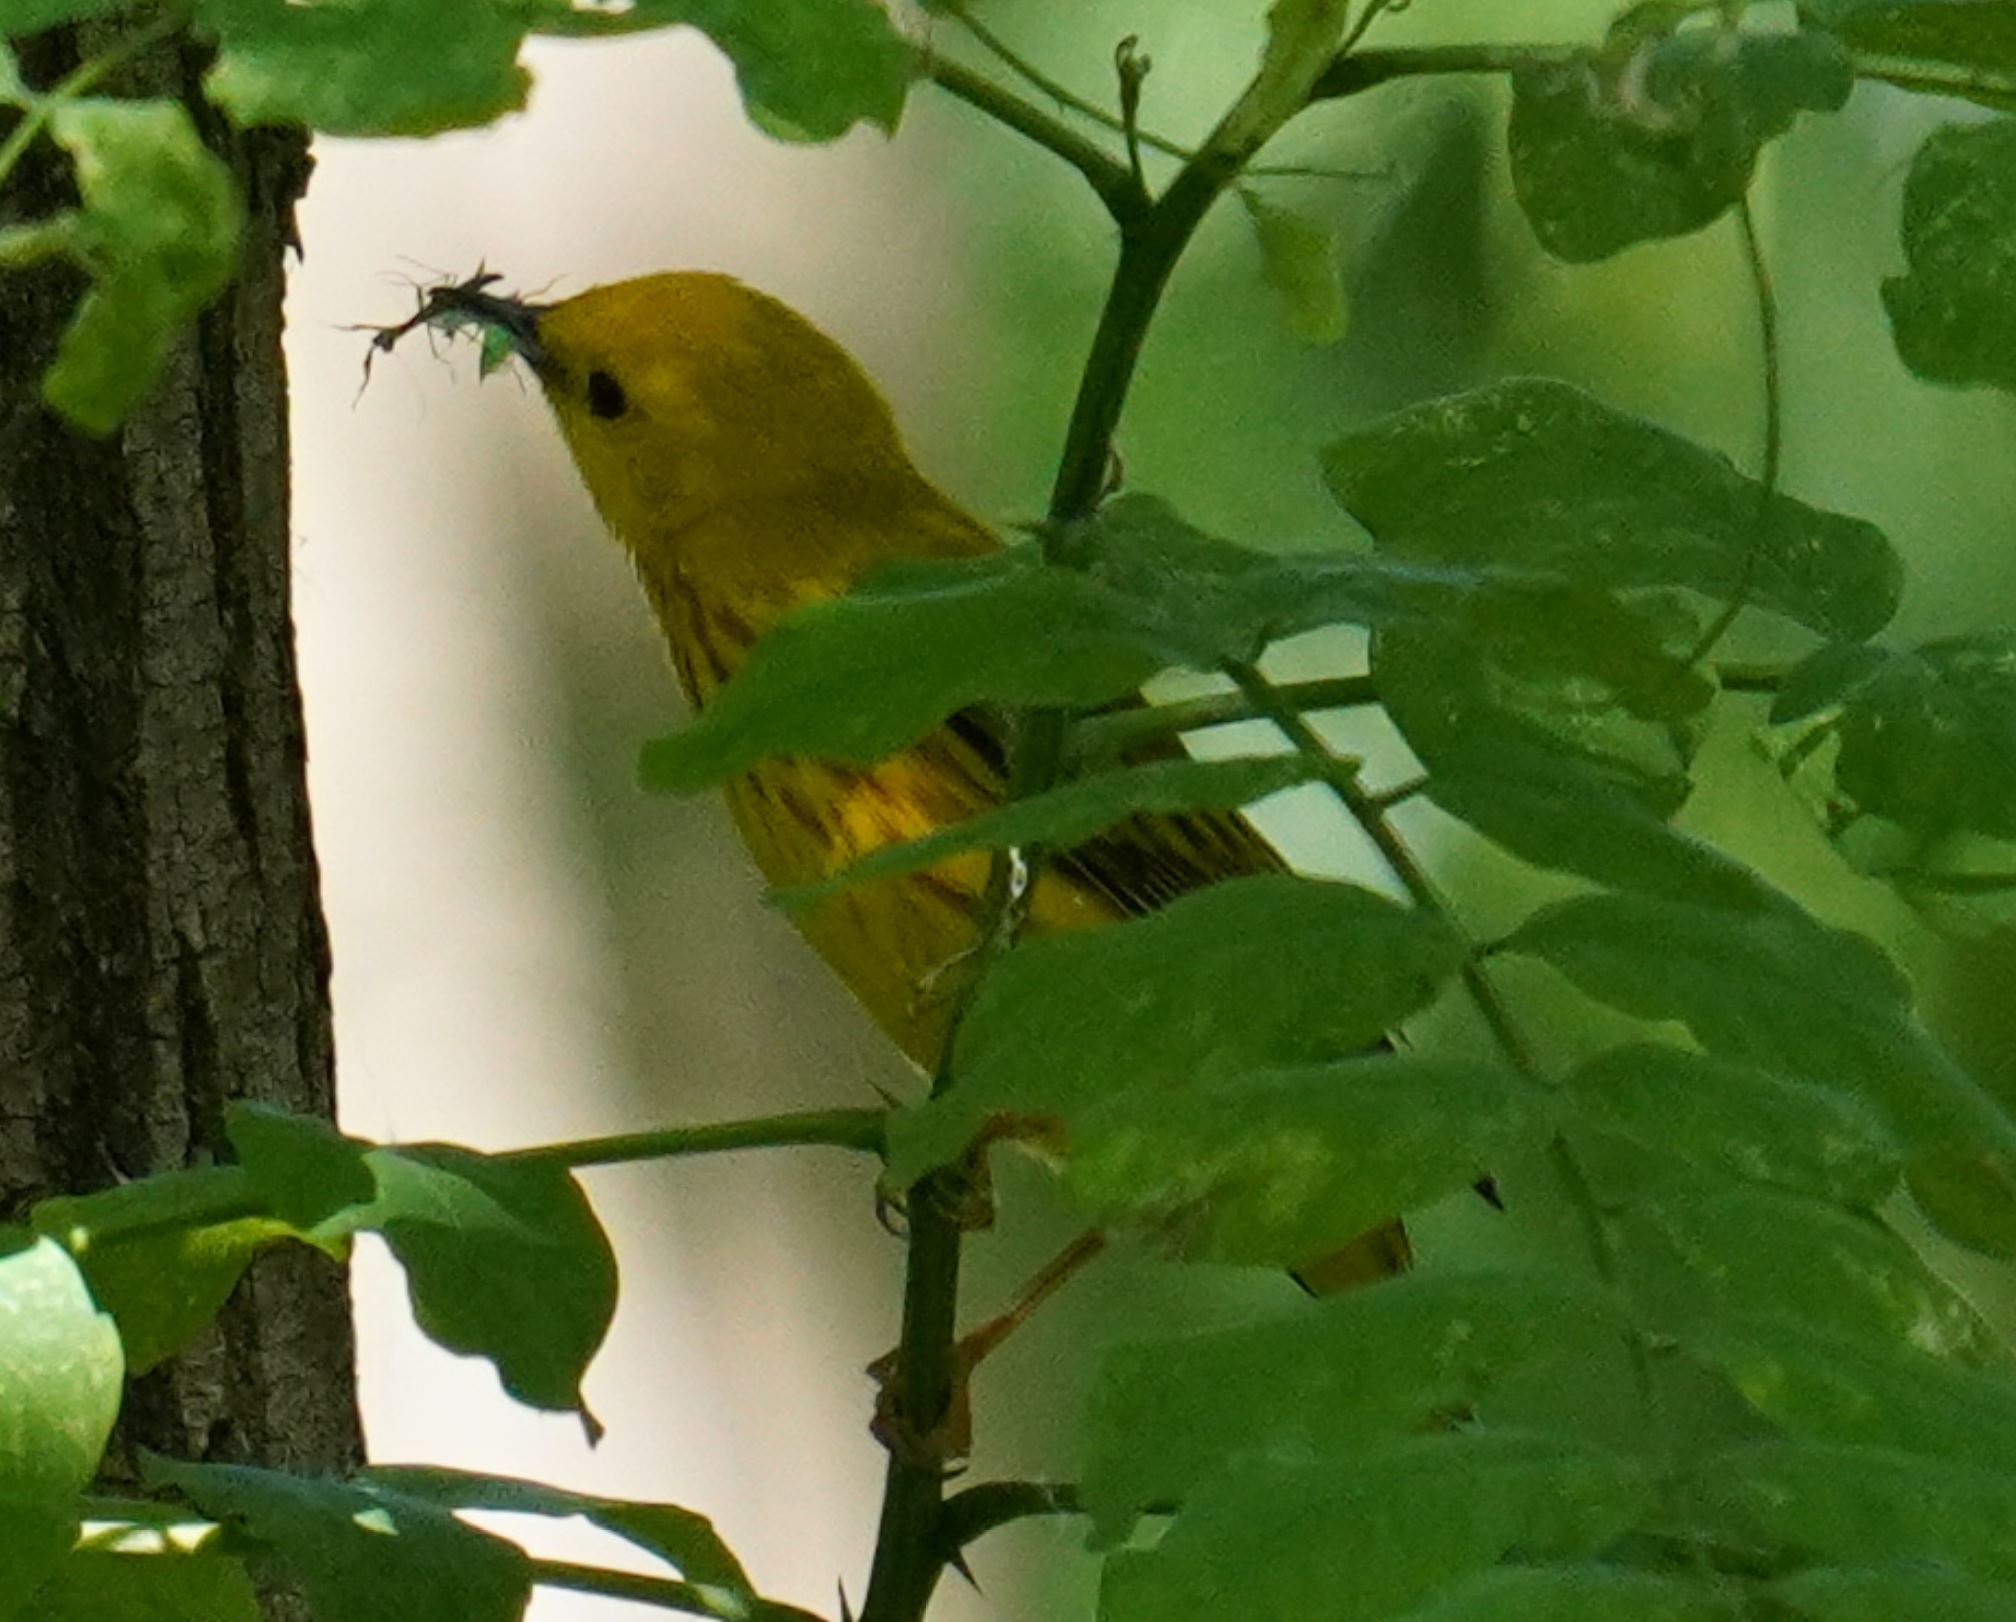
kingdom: Animalia
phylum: Chordata
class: Aves
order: Passeriformes
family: Parulidae
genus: Setophaga
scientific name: Setophaga petechia
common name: Yellow warbler
